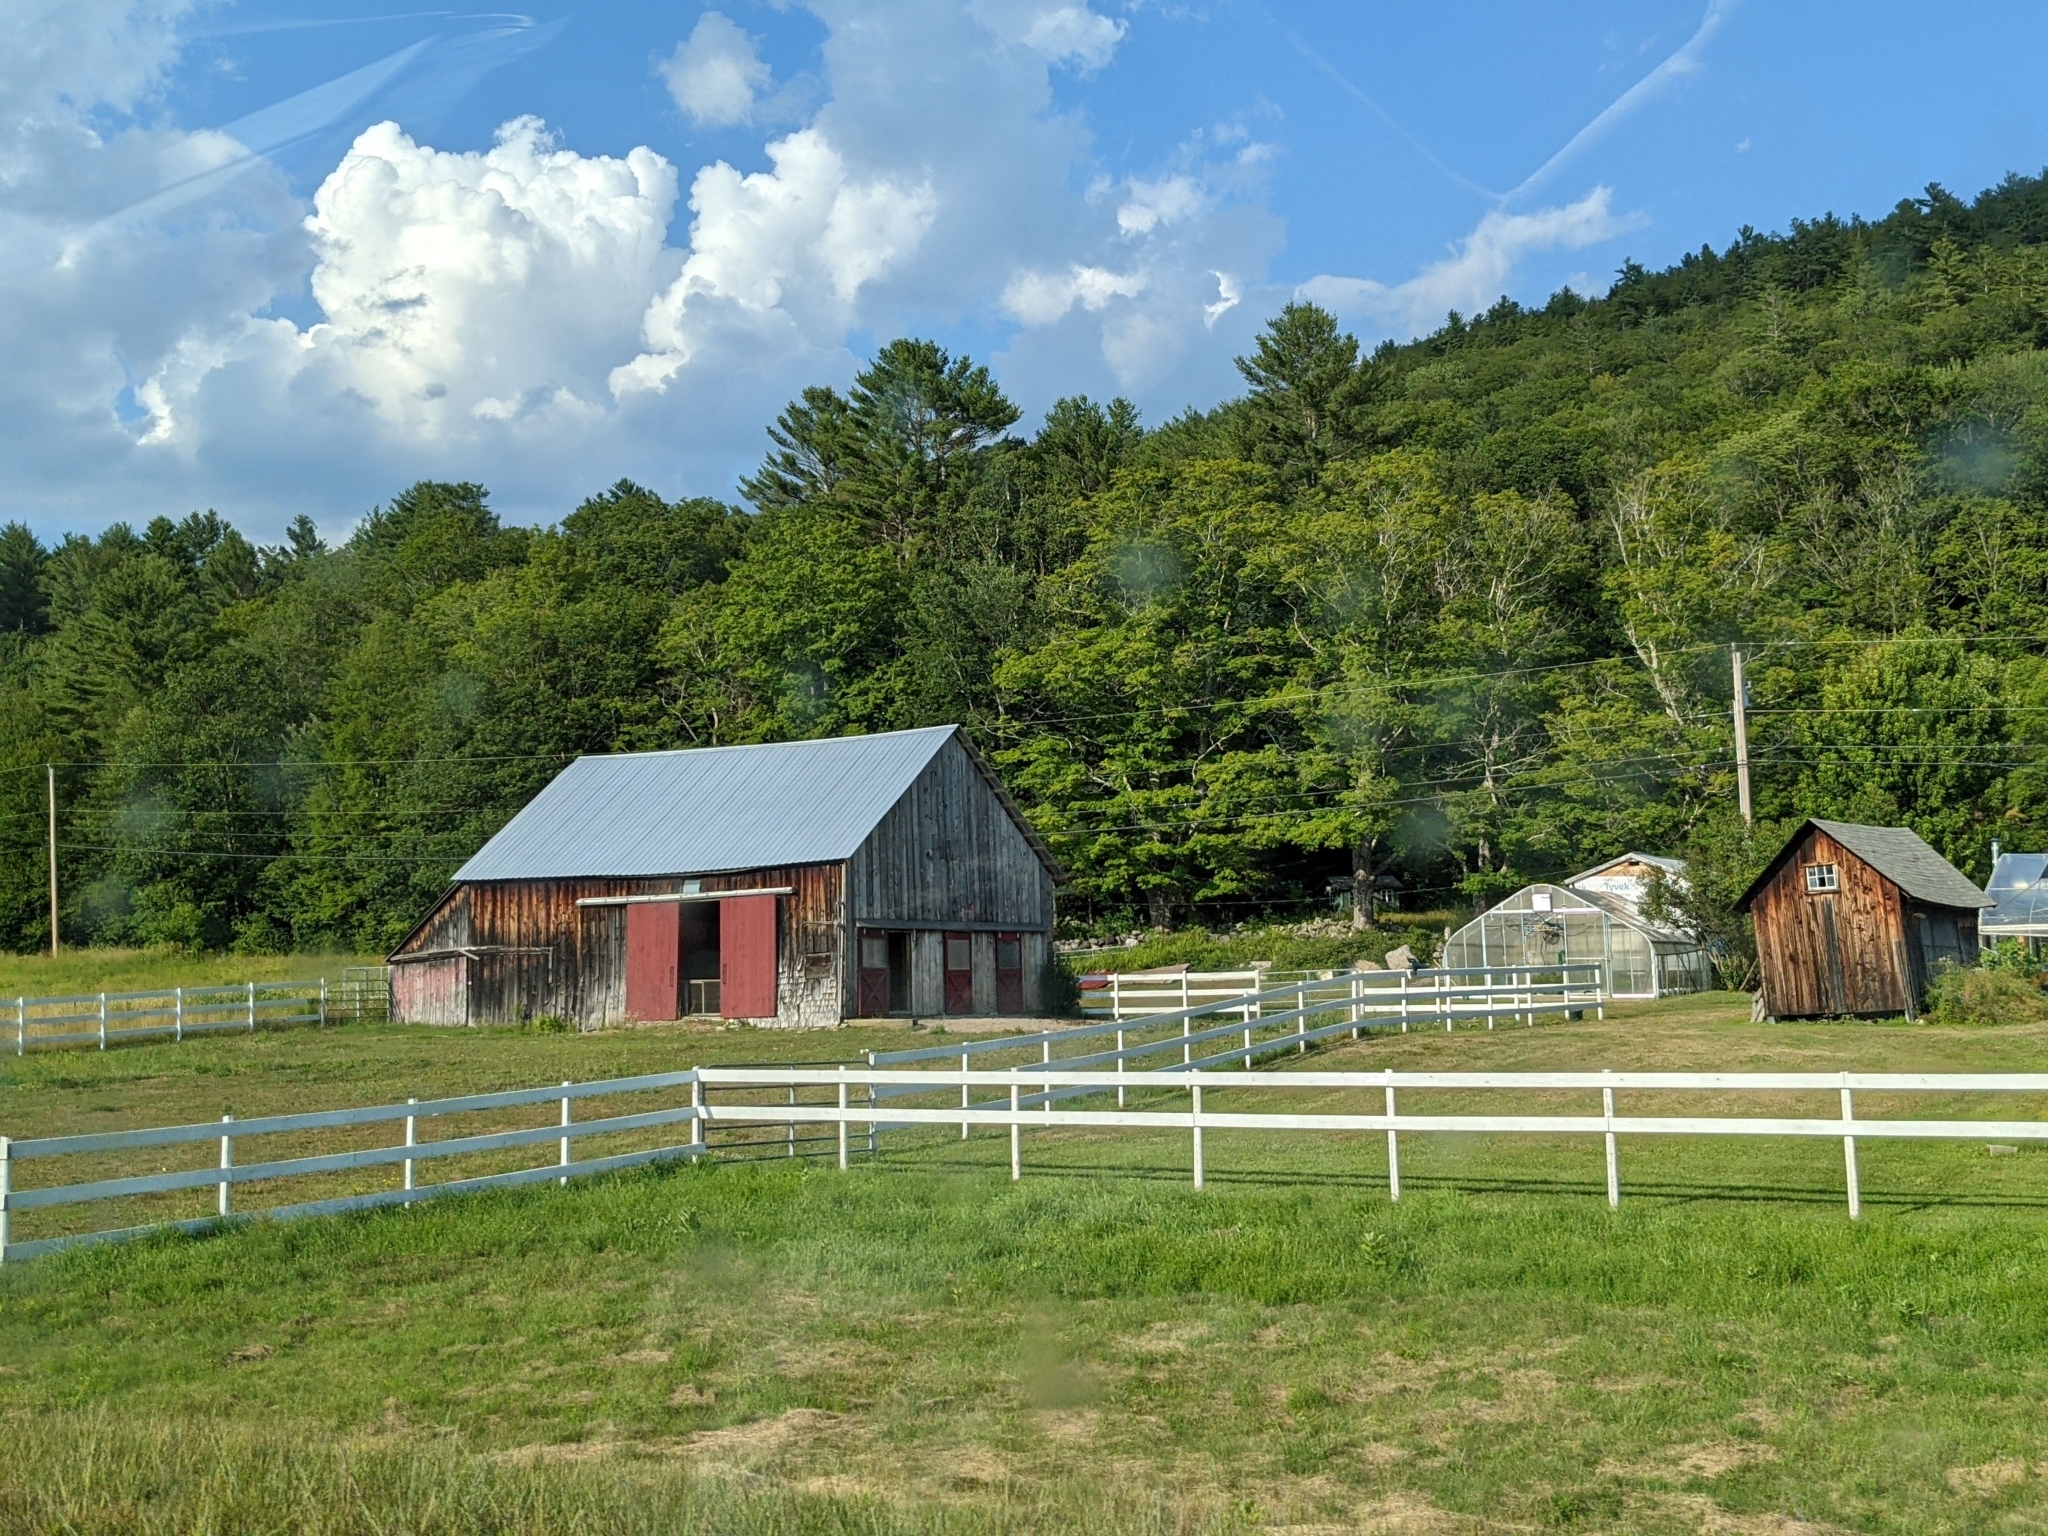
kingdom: Plantae
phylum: Tracheophyta
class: Pinopsida
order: Pinales
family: Pinaceae
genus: Pinus
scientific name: Pinus strobus
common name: Weymouth pine
